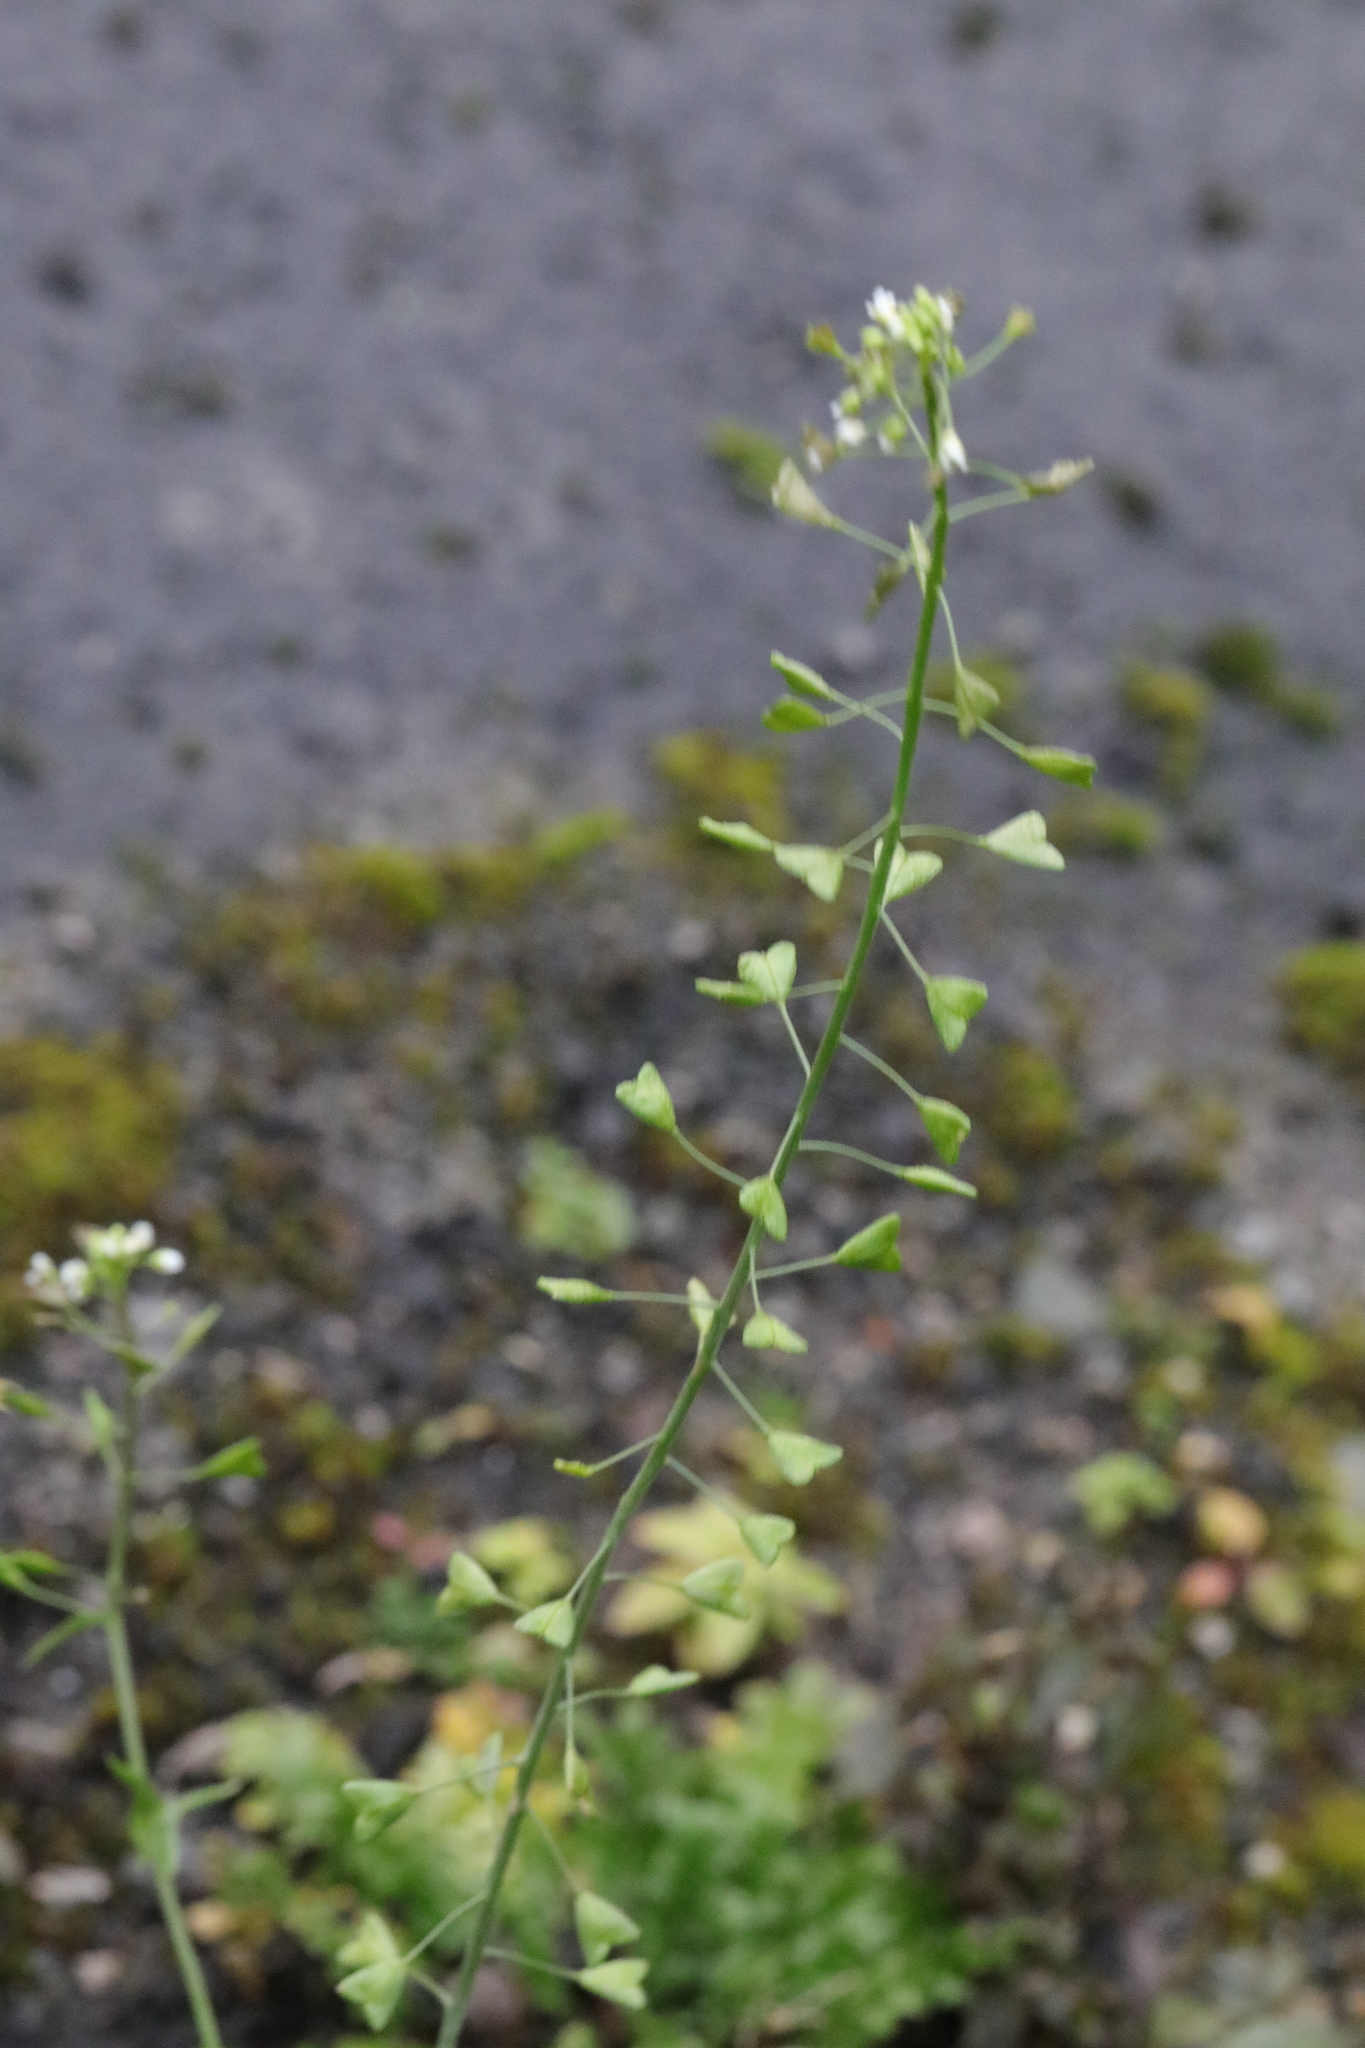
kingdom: Plantae
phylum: Tracheophyta
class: Magnoliopsida
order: Brassicales
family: Brassicaceae
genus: Capsella
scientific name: Capsella bursa-pastoris
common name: Shepherd's purse
